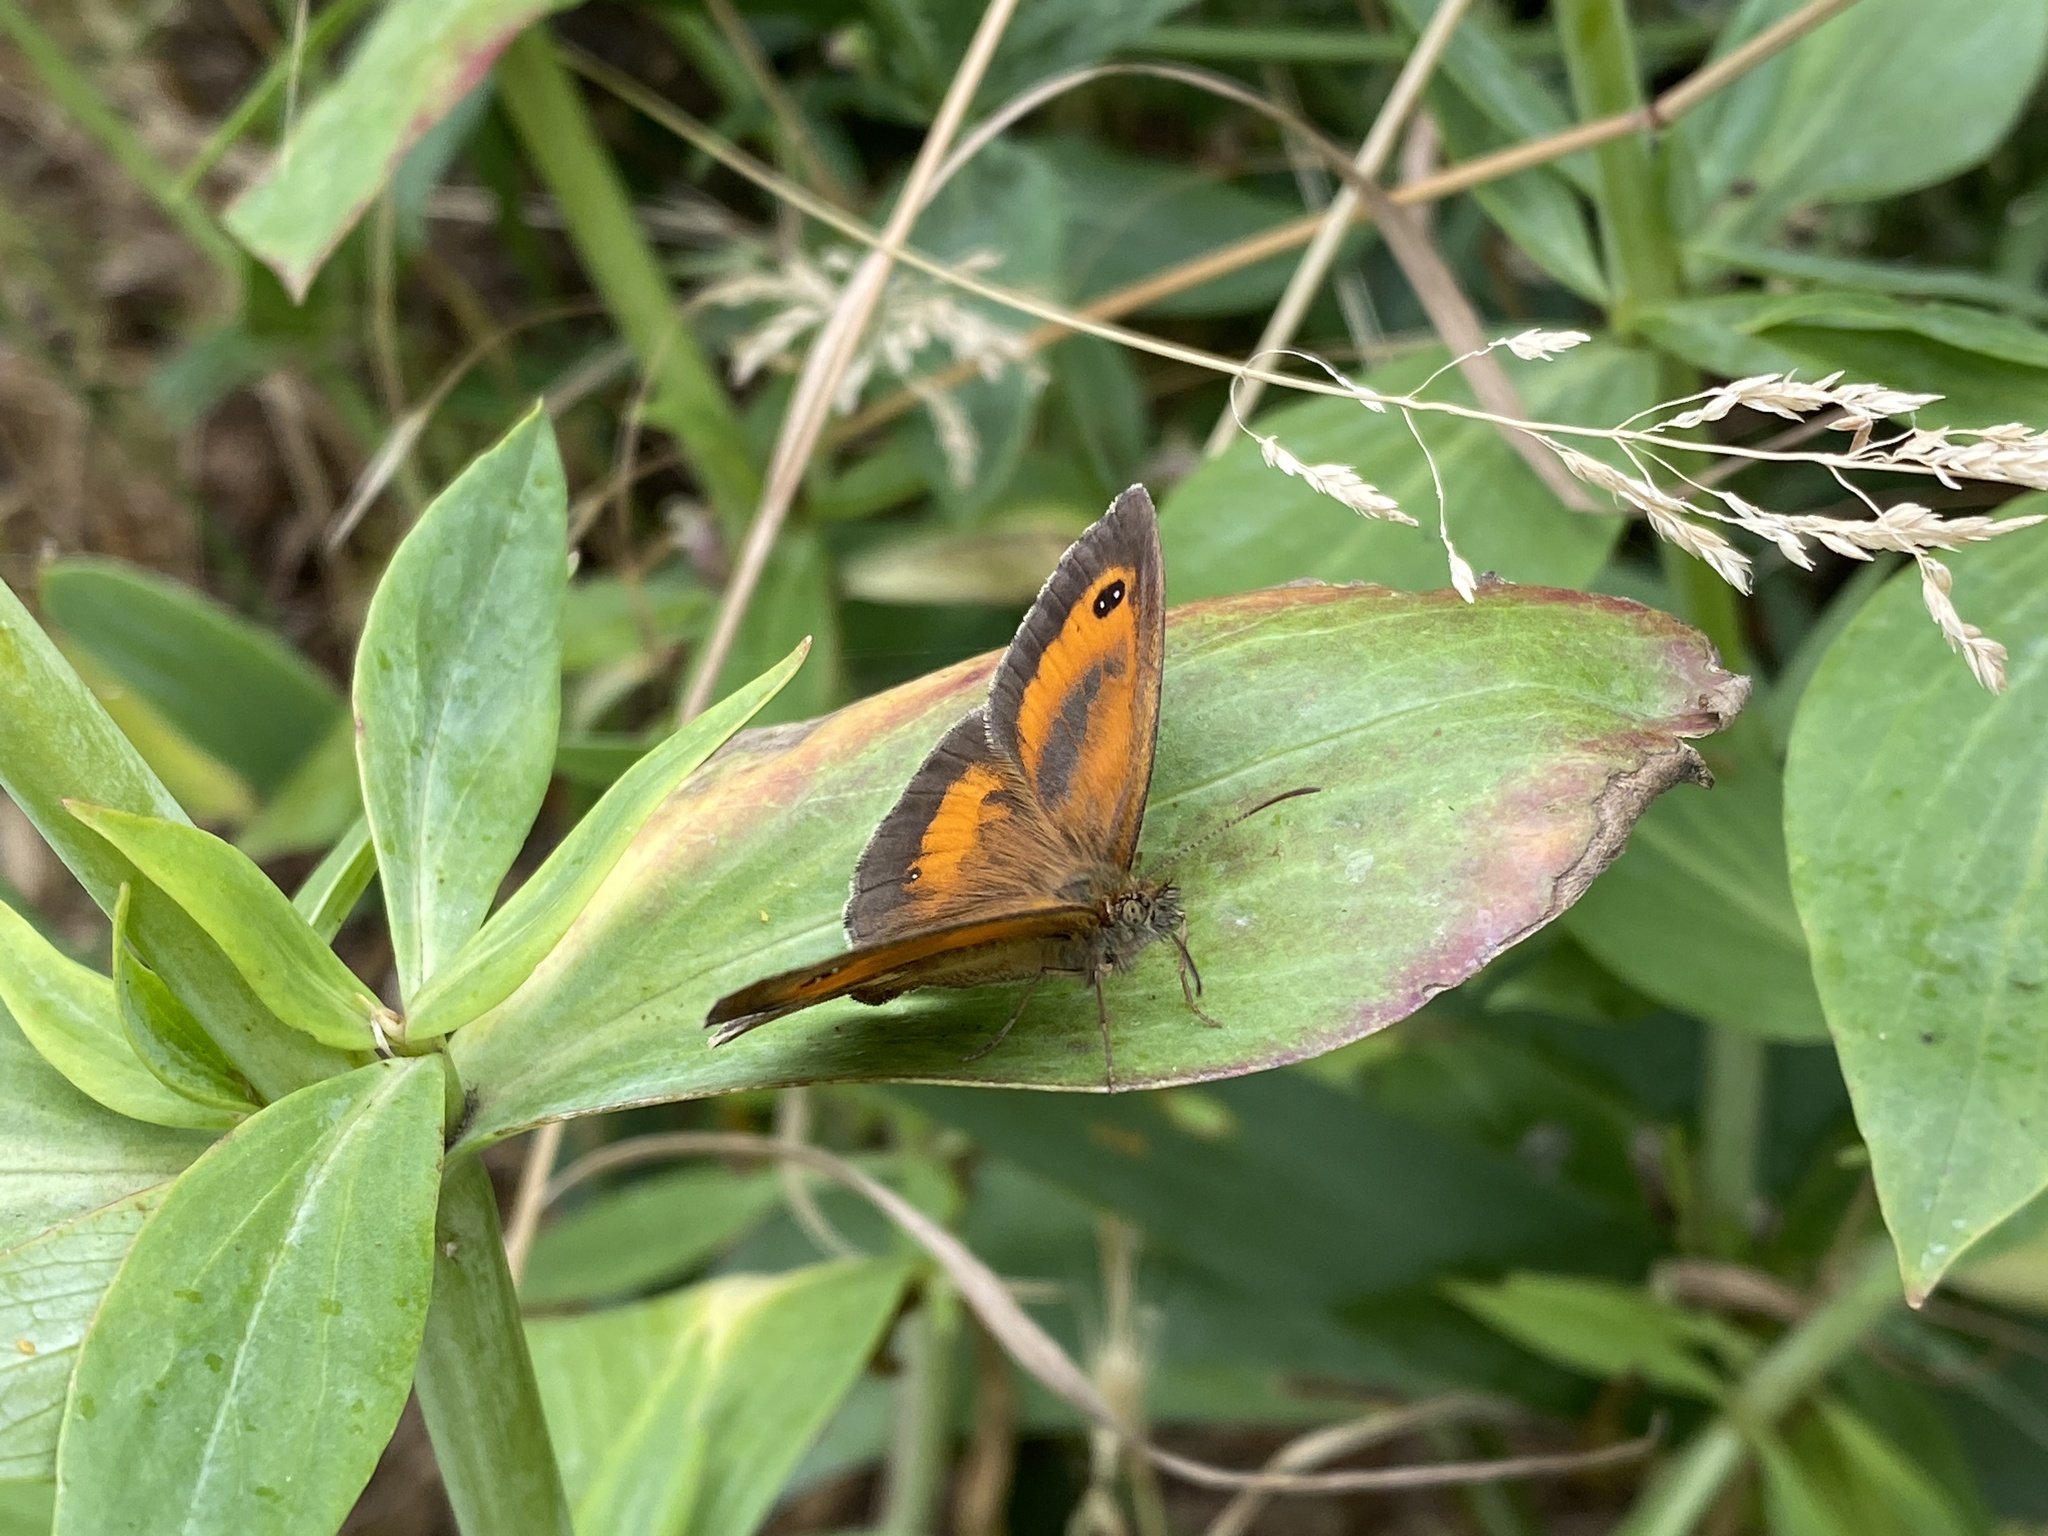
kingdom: Animalia
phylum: Arthropoda
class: Insecta
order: Lepidoptera
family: Nymphalidae
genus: Pyronia
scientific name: Pyronia tithonus
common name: Gatekeeper
